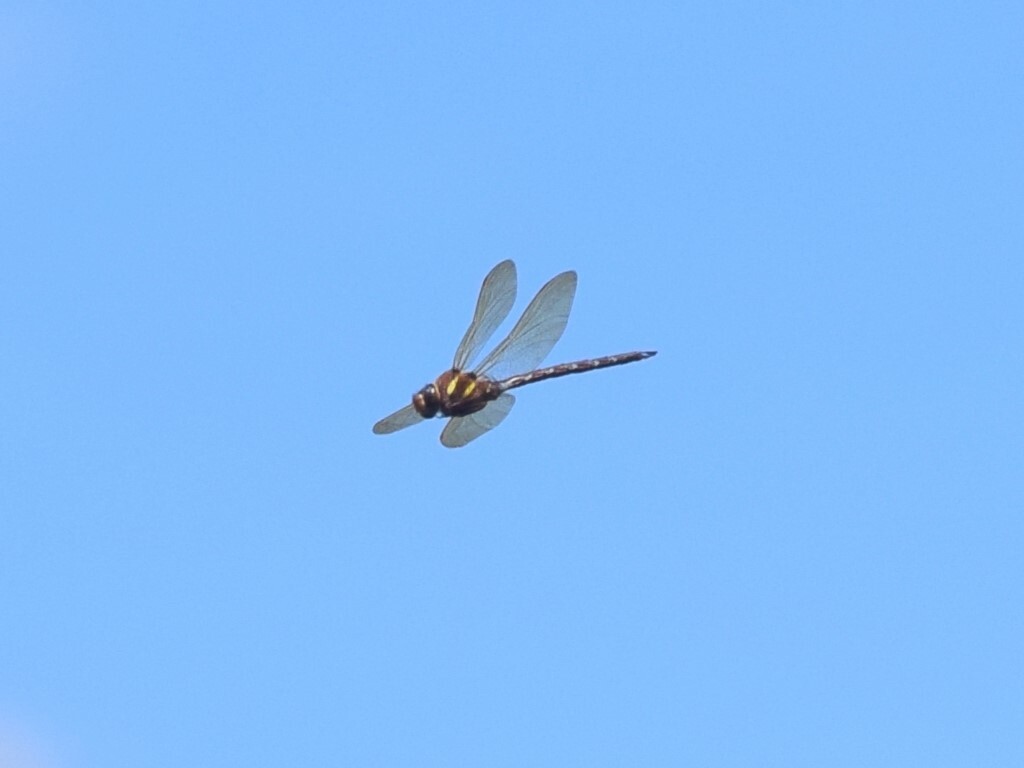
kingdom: Animalia
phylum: Arthropoda
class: Insecta
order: Odonata
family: Aeshnidae
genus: Aeshna
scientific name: Aeshna grandis
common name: Brown hawker
